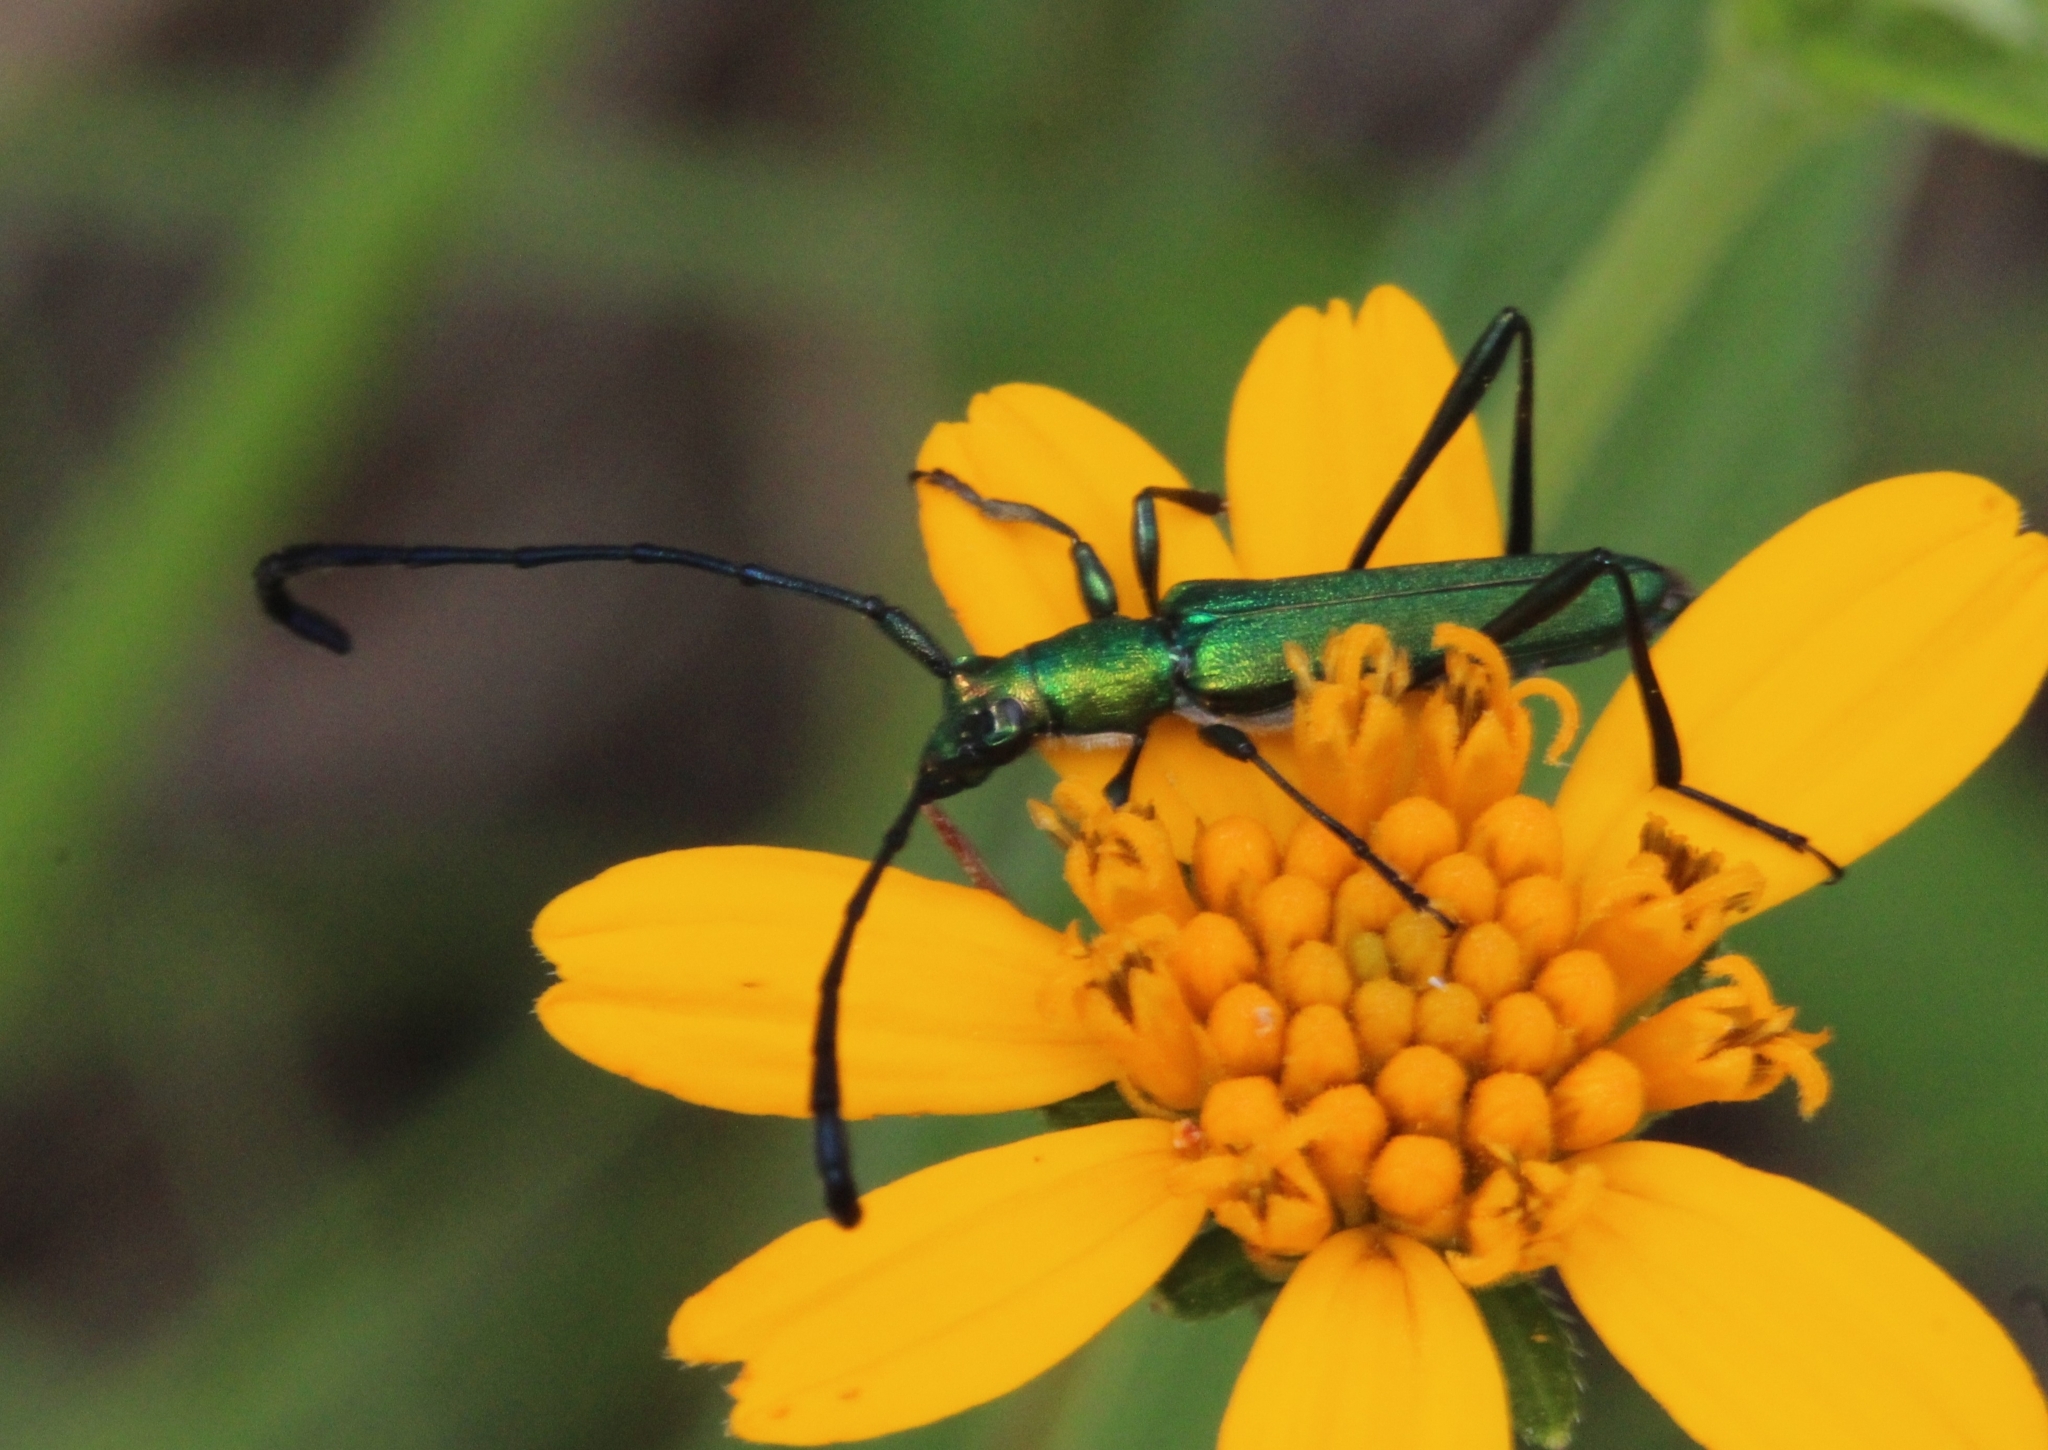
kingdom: Animalia
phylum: Arthropoda
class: Insecta
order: Coleoptera
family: Cerambycidae
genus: Hypocrites
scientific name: Hypocrites
